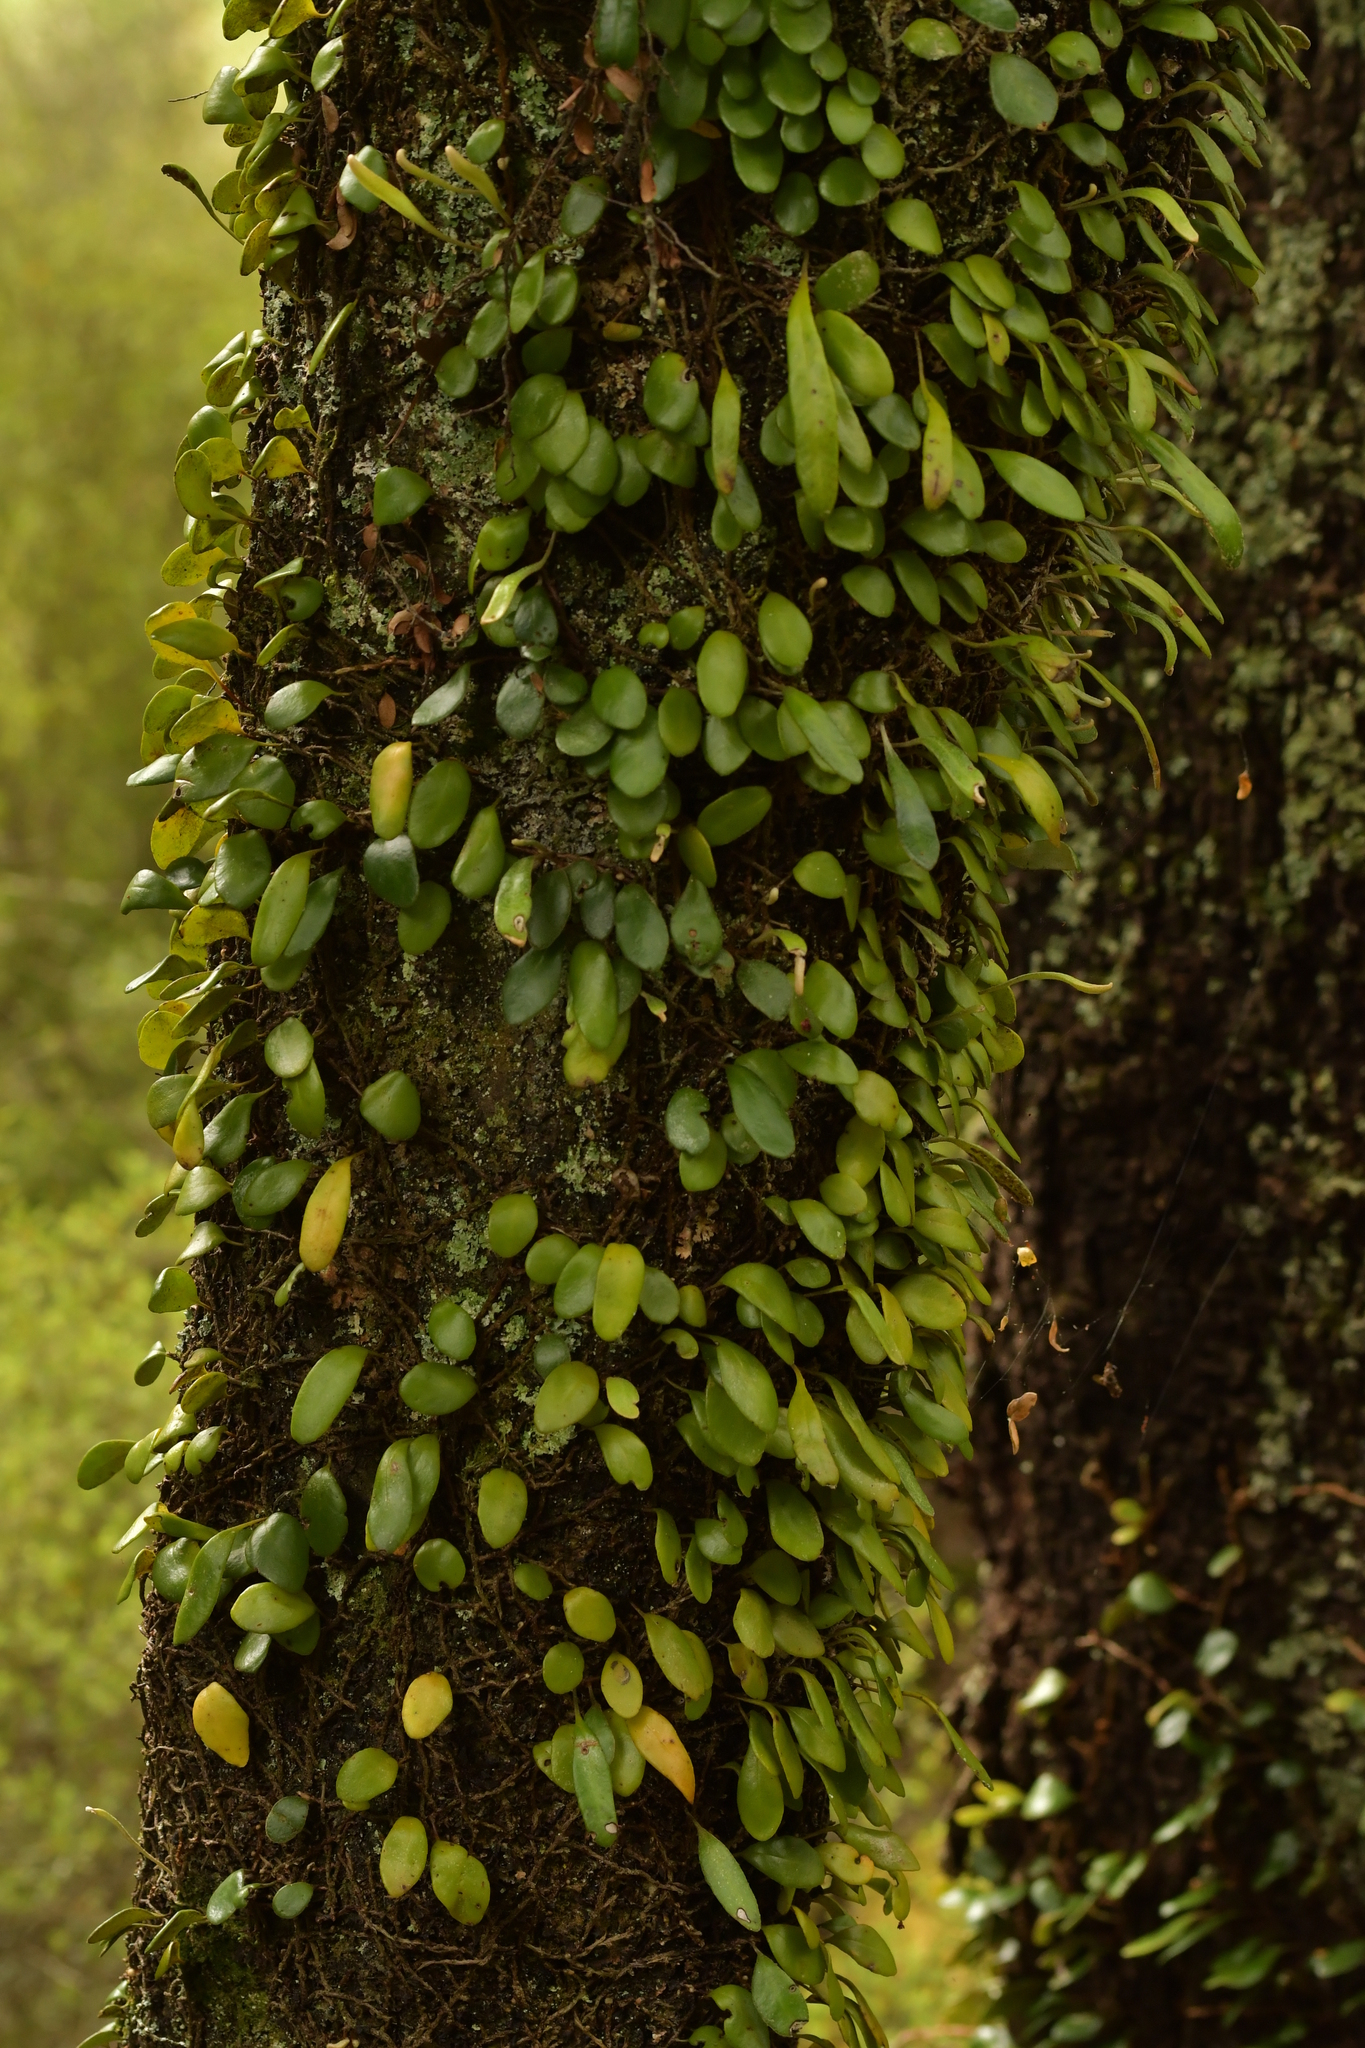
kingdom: Plantae
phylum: Tracheophyta
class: Polypodiopsida
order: Polypodiales
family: Polypodiaceae
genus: Pyrrosia
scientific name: Pyrrosia eleagnifolia
